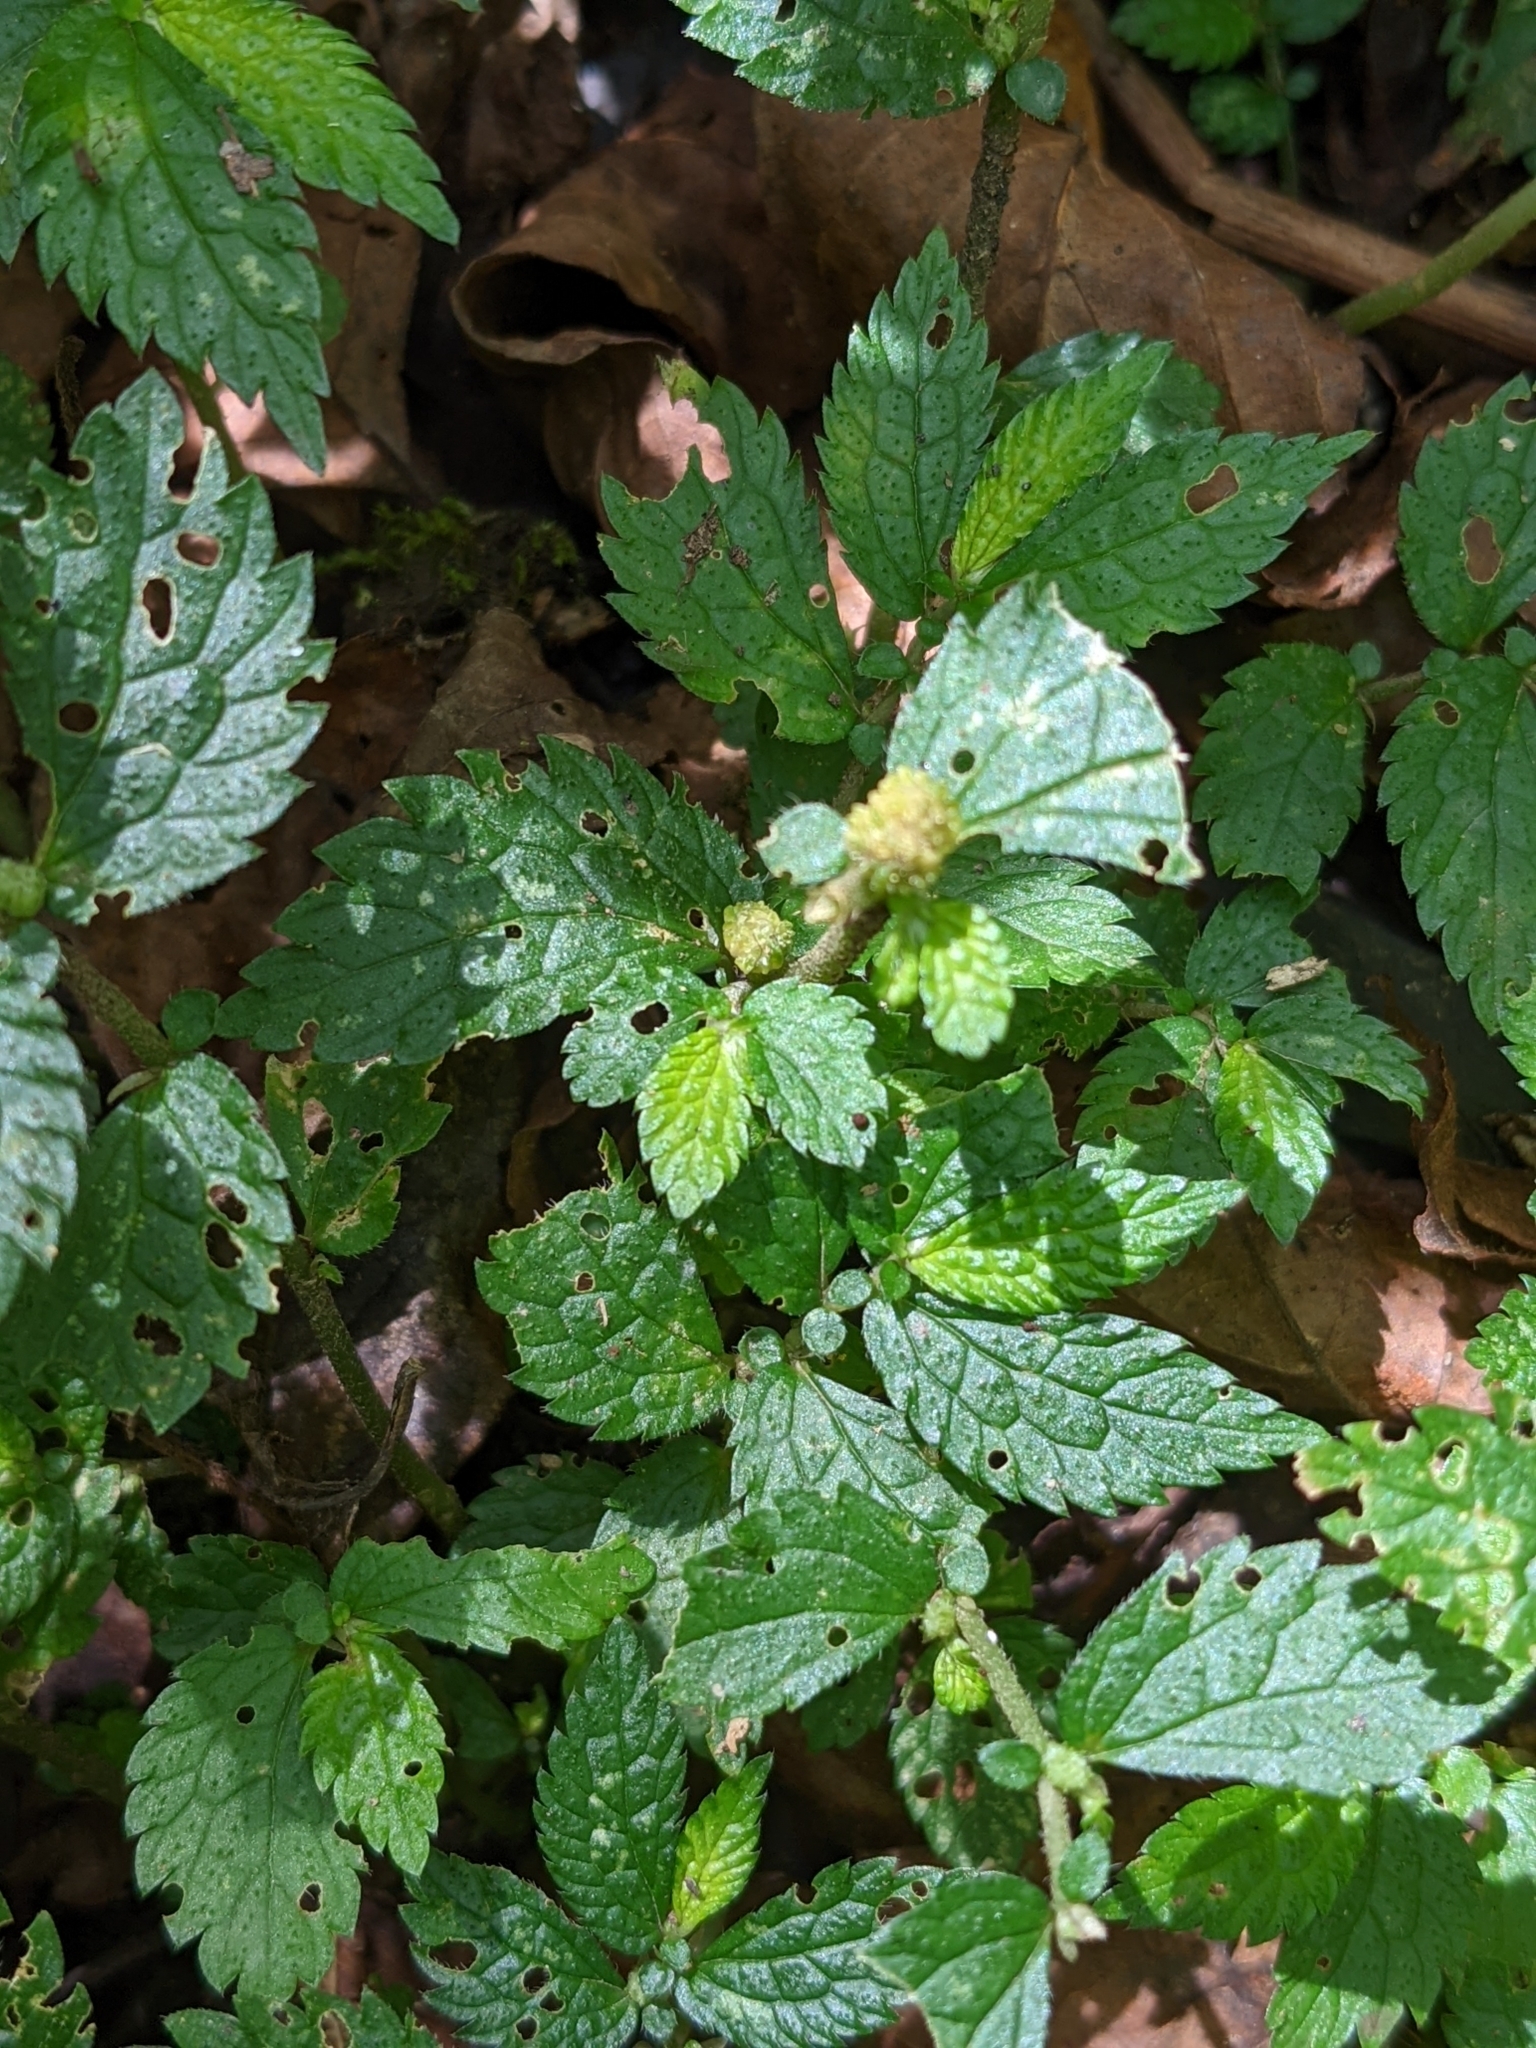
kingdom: Plantae
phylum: Tracheophyta
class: Magnoliopsida
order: Rosales
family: Urticaceae
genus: Elatostema
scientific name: Elatostema parvum
